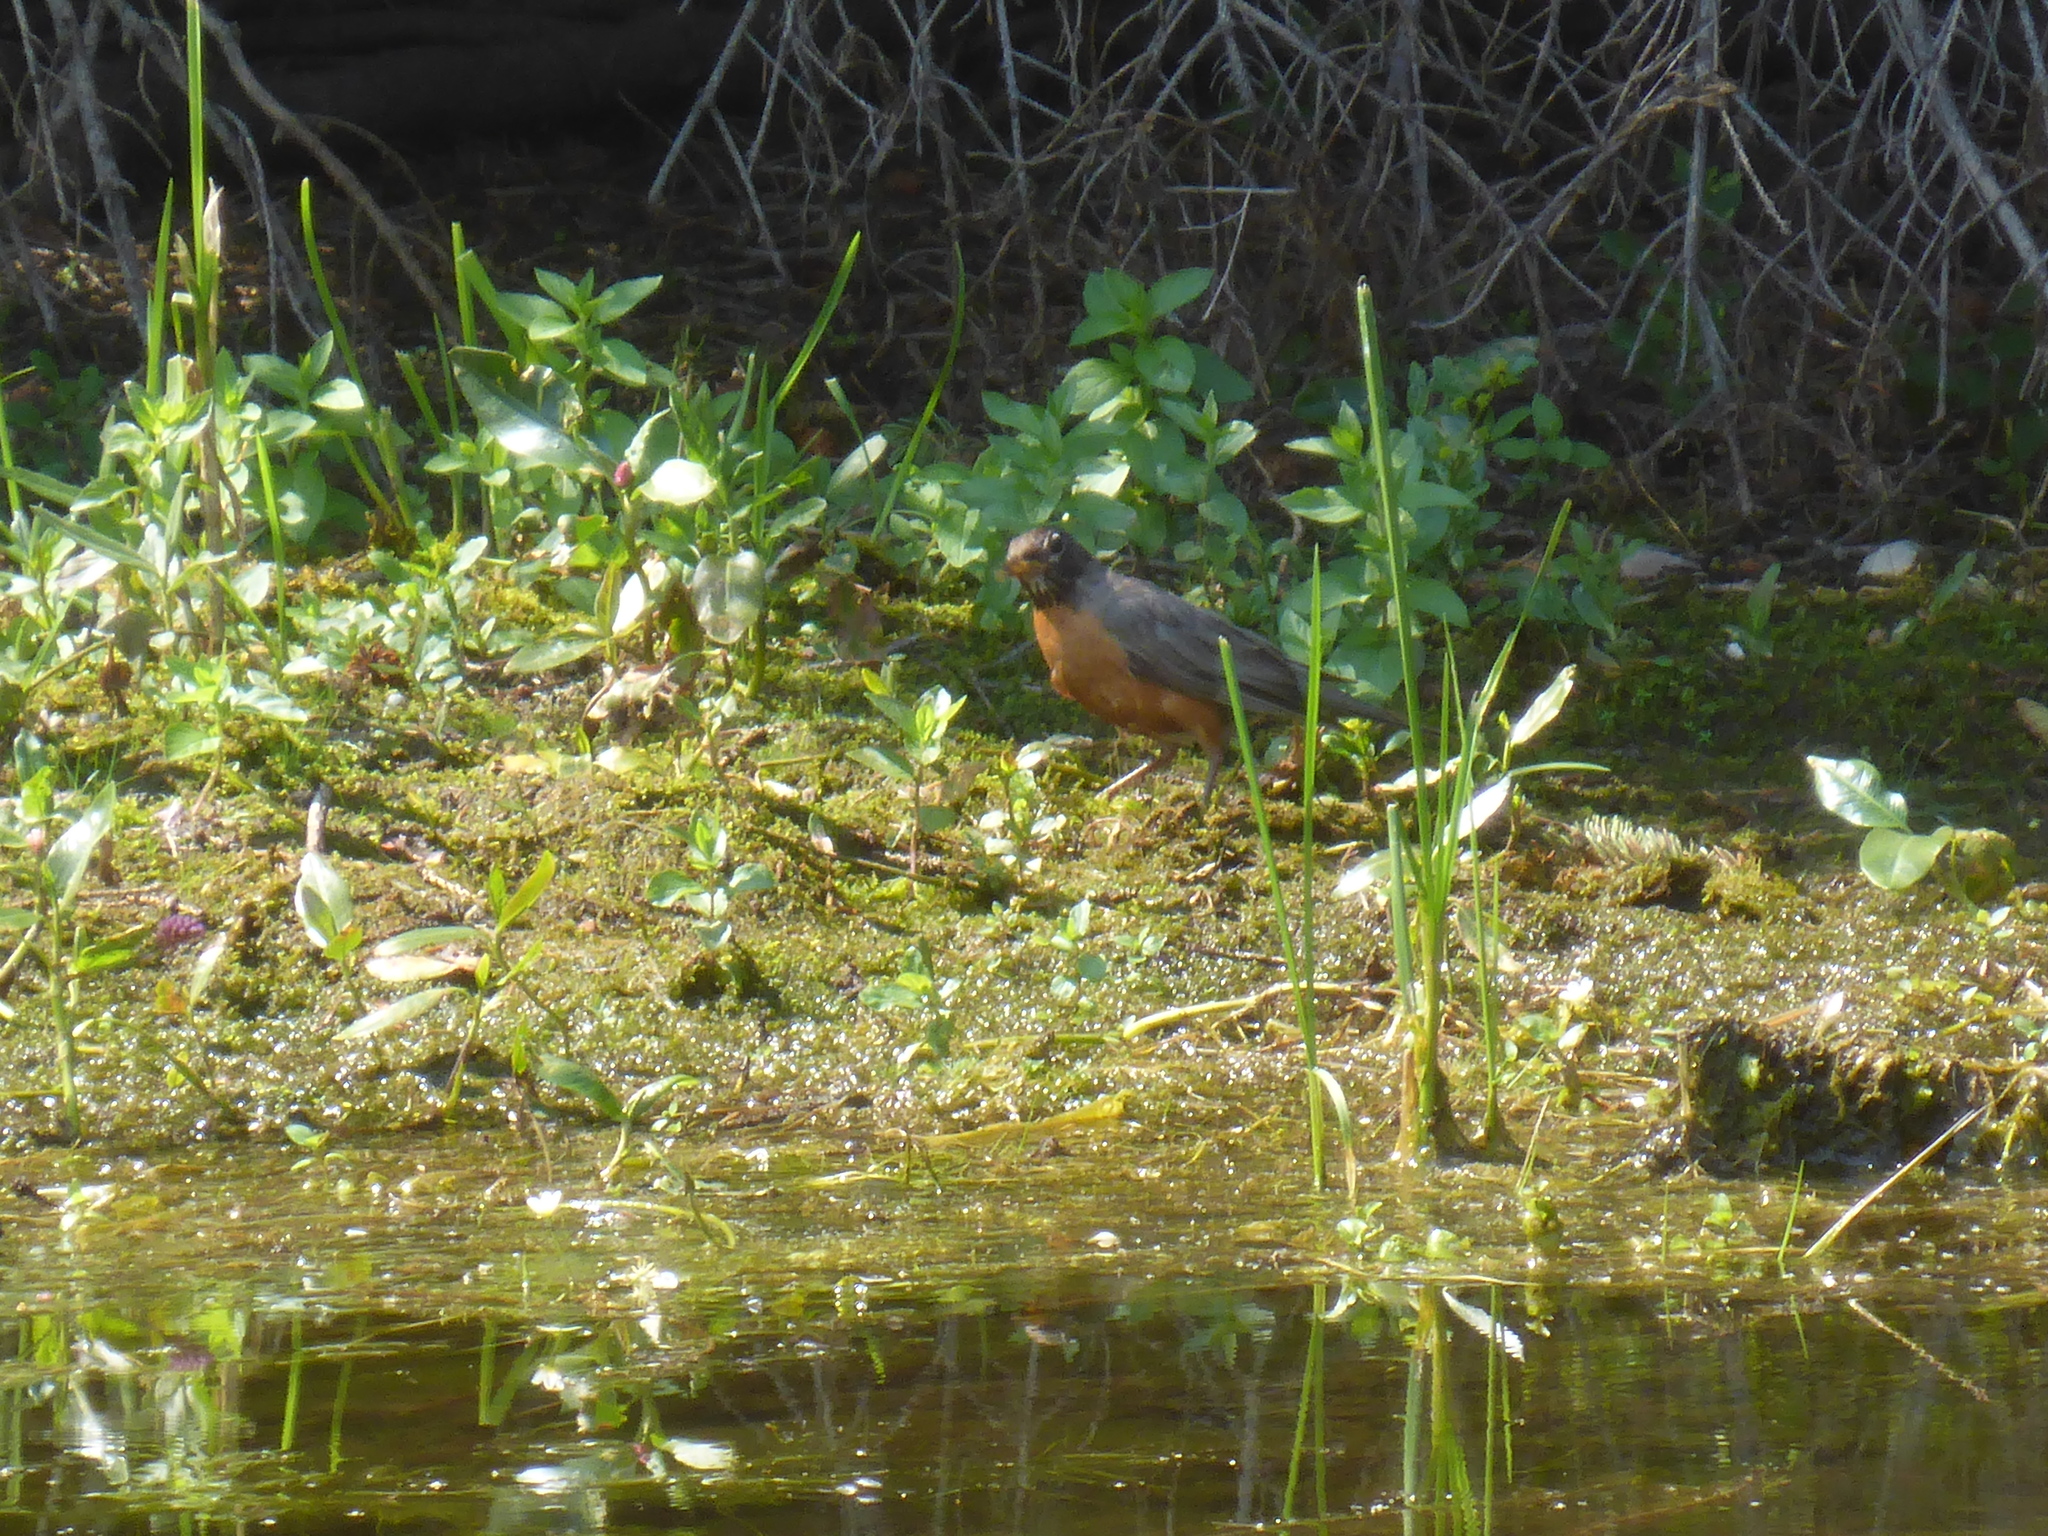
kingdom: Animalia
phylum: Chordata
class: Aves
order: Passeriformes
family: Turdidae
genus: Turdus
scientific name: Turdus migratorius
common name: American robin
